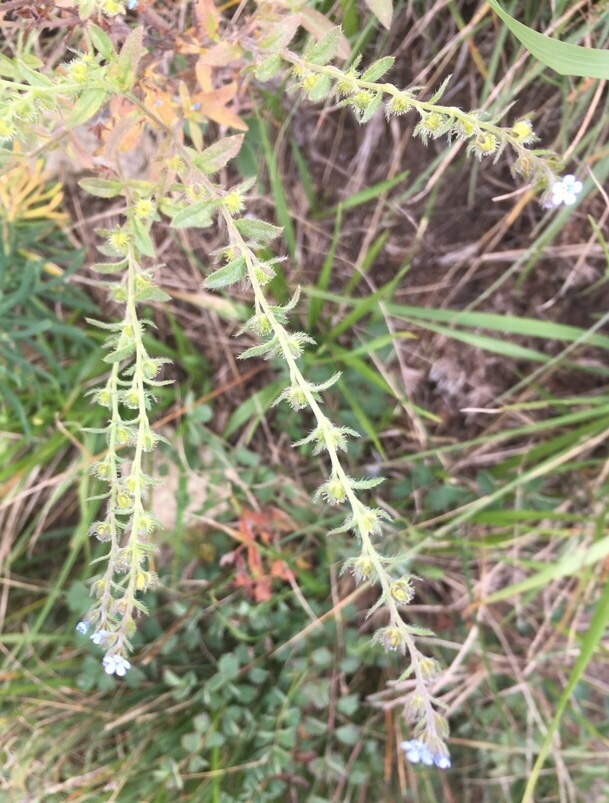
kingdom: Plantae
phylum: Tracheophyta
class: Magnoliopsida
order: Boraginales
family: Boraginaceae
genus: Lappula
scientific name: Lappula squarrosa
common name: European stickseed
